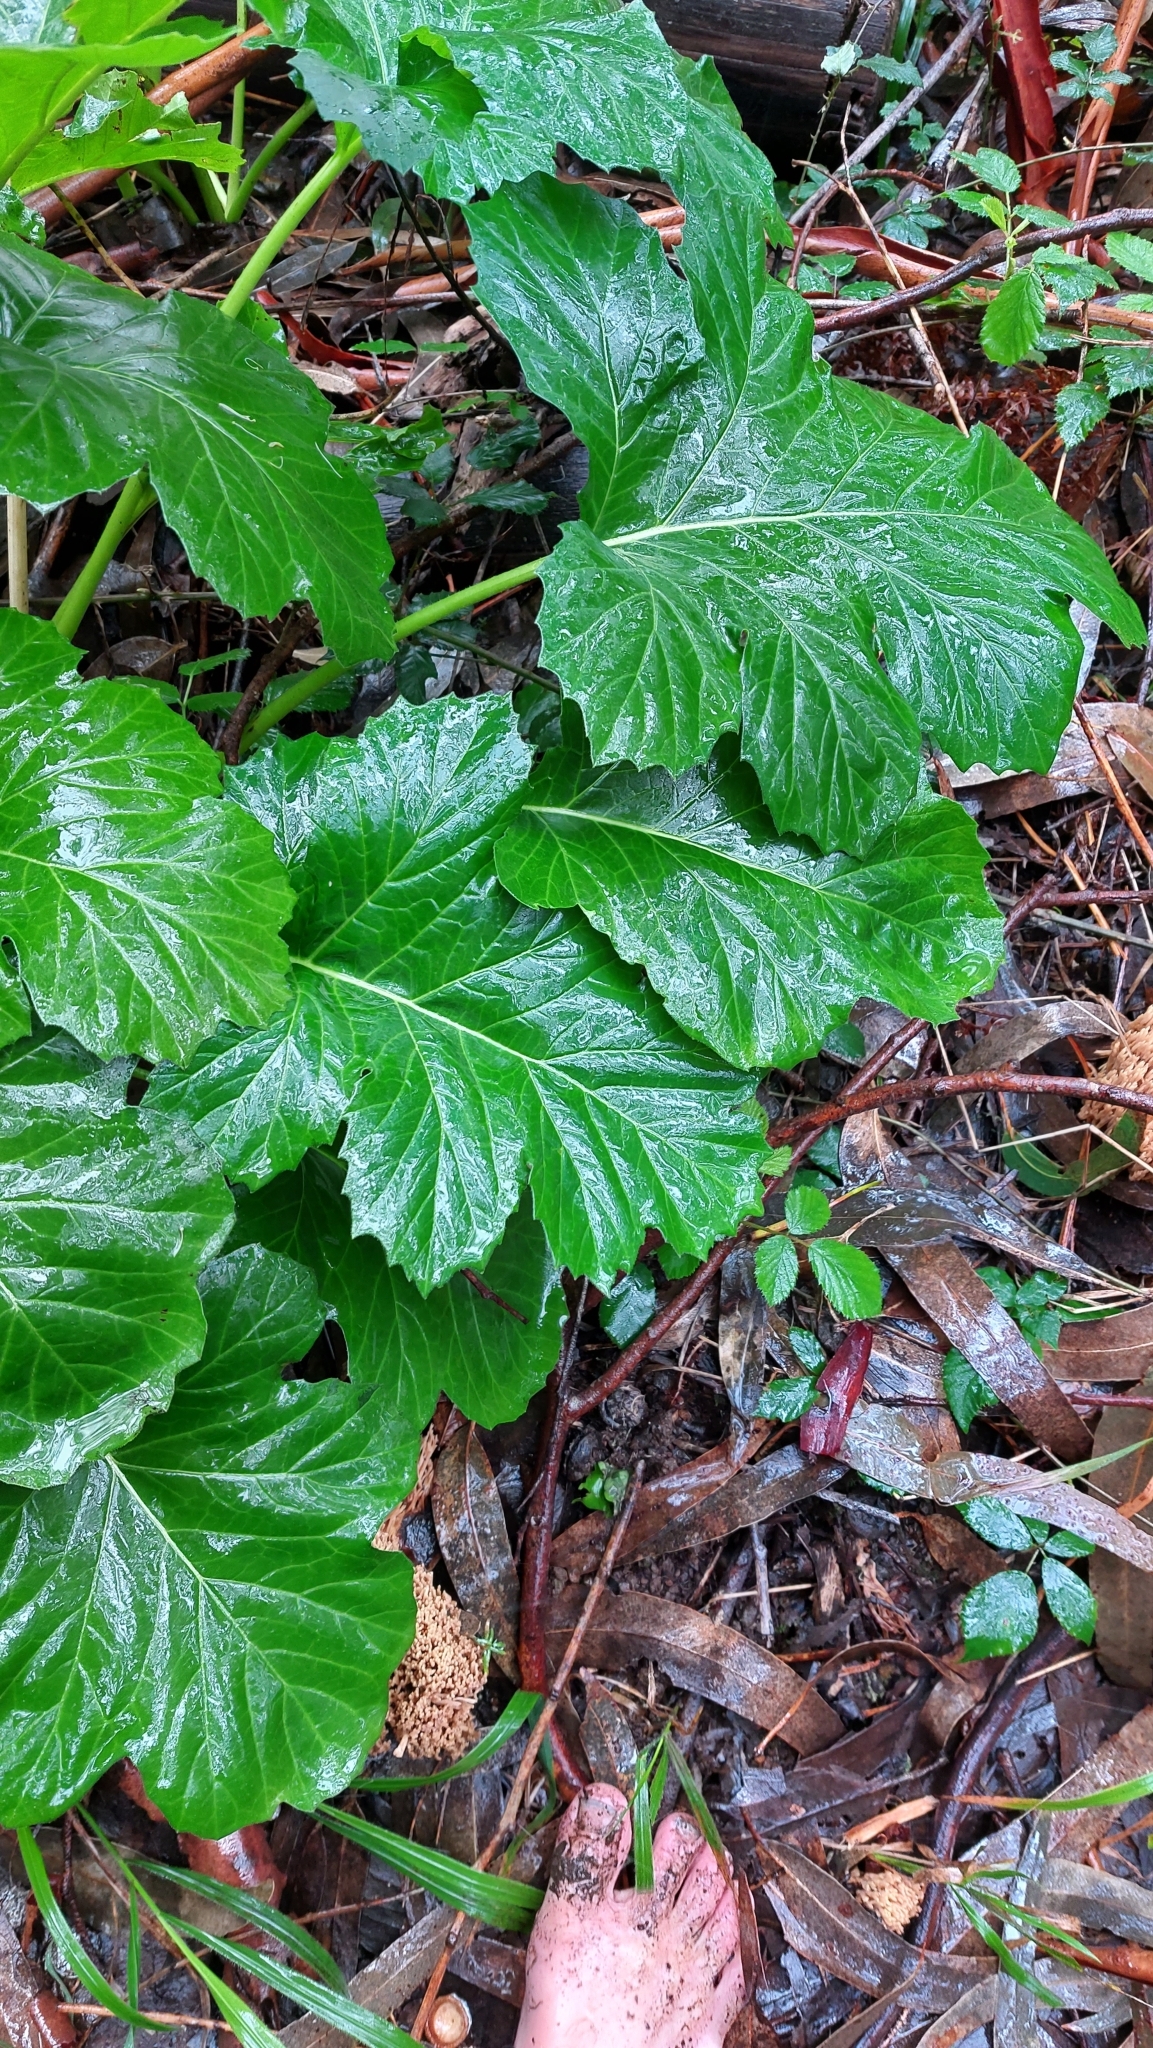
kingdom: Plantae
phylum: Tracheophyta
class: Magnoliopsida
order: Lamiales
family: Acanthaceae
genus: Acanthus
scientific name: Acanthus mollis
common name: Bear's-breech
